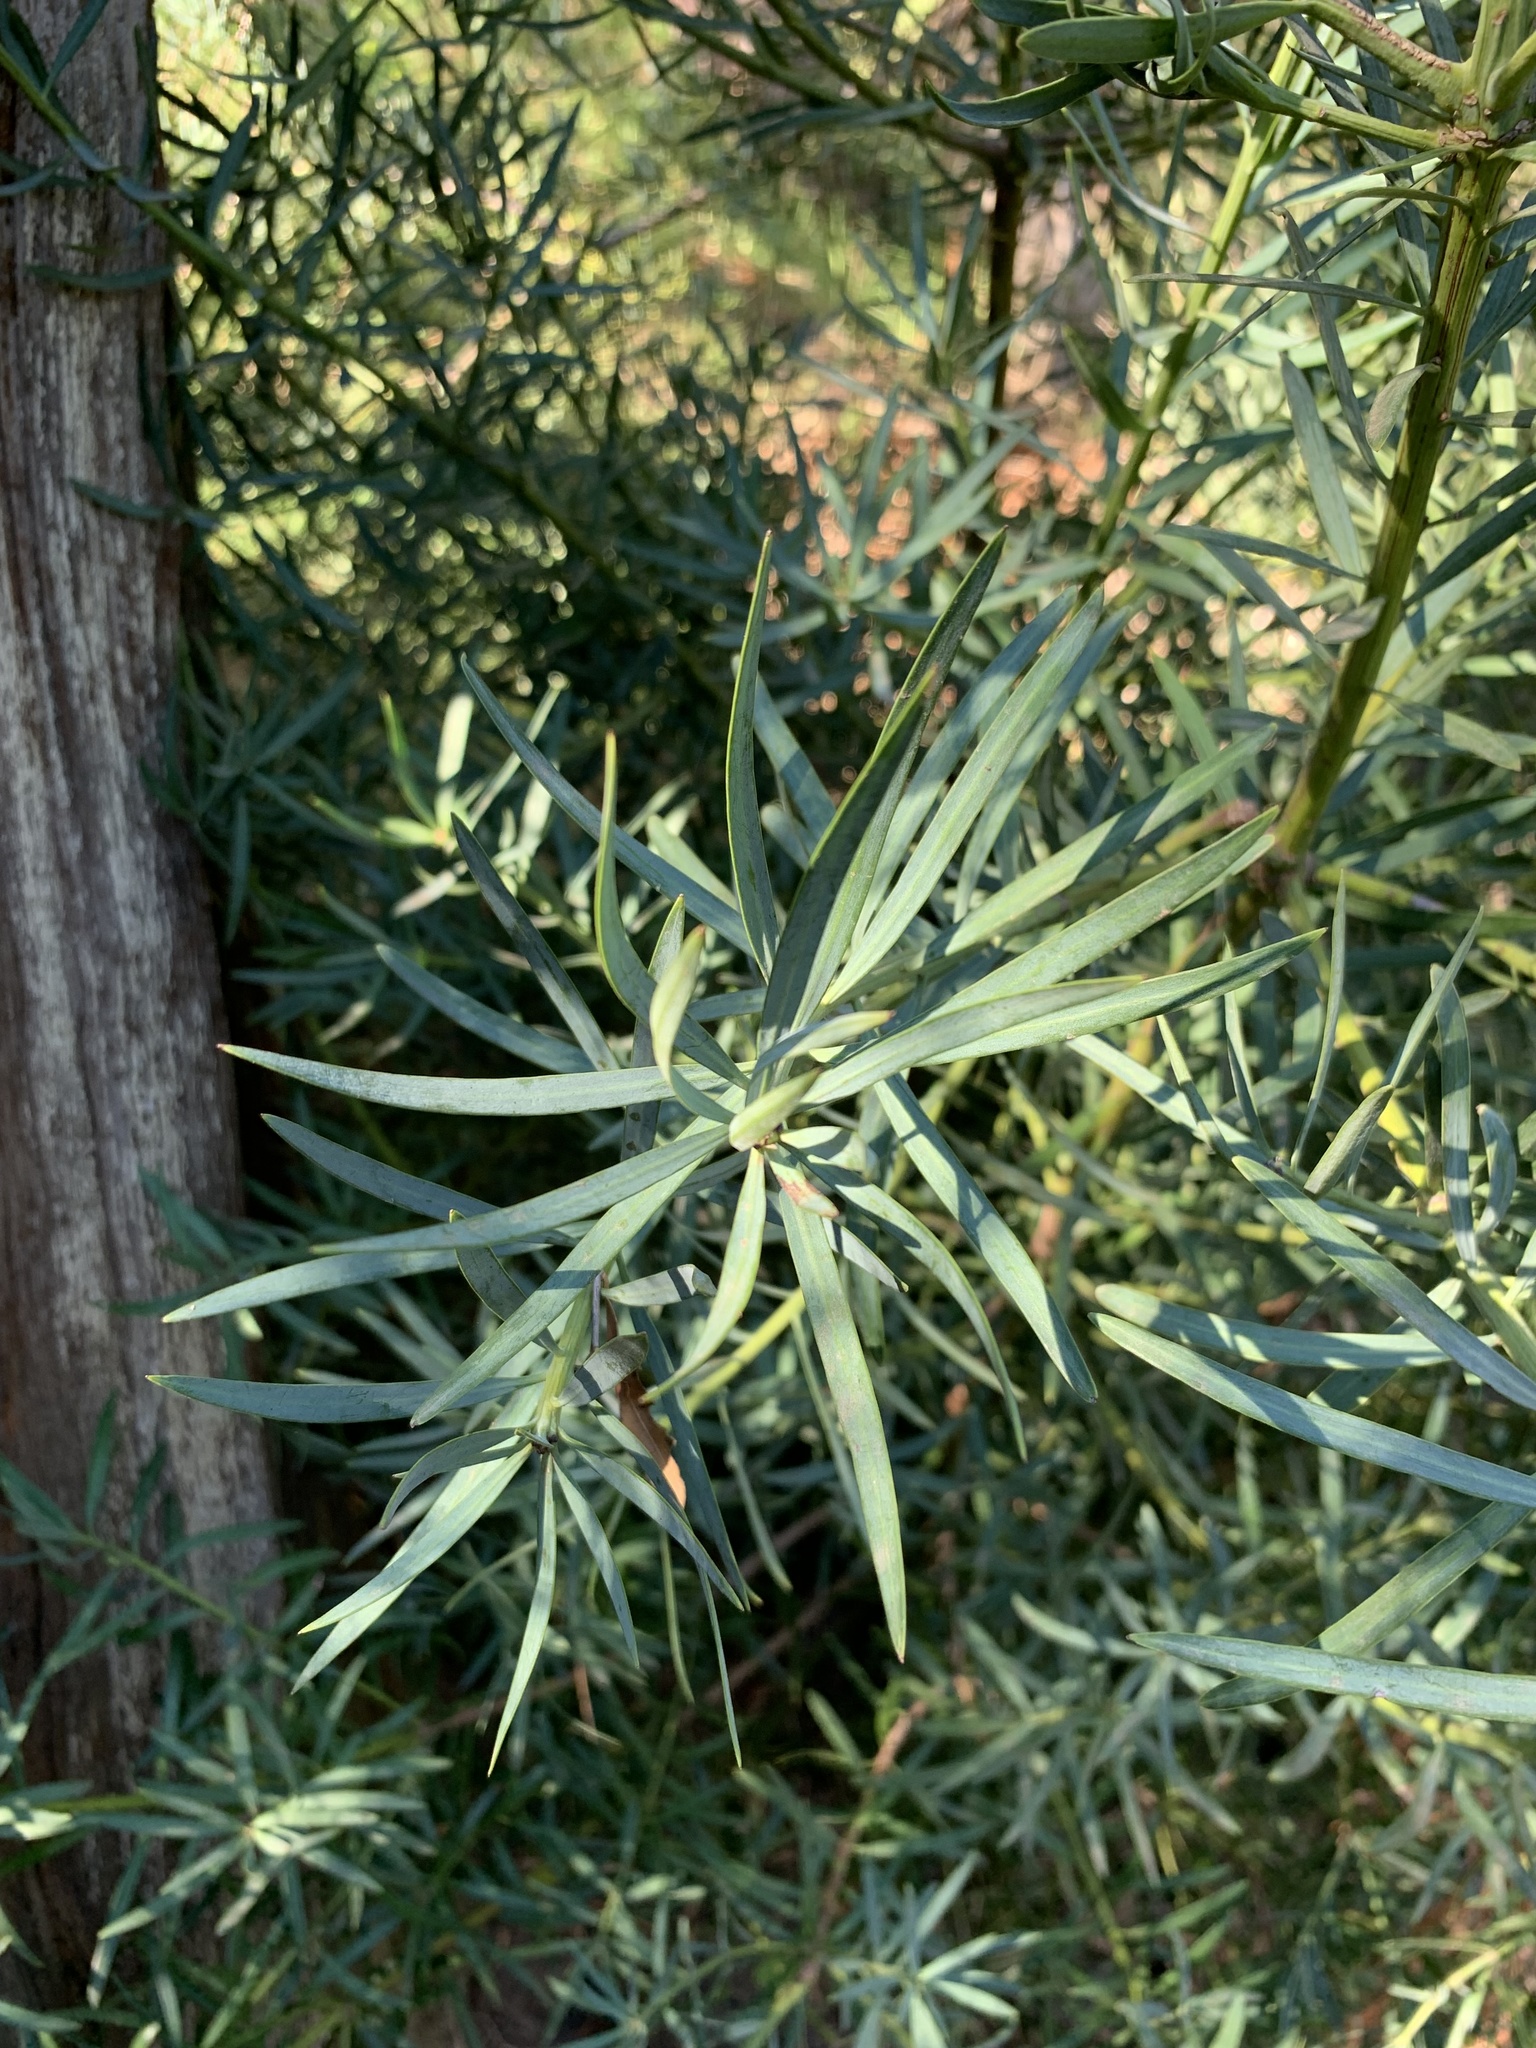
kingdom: Plantae
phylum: Tracheophyta
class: Pinopsida
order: Pinales
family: Podocarpaceae
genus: Podocarpus
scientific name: Podocarpus elongatus
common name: Breede river yellowwood
